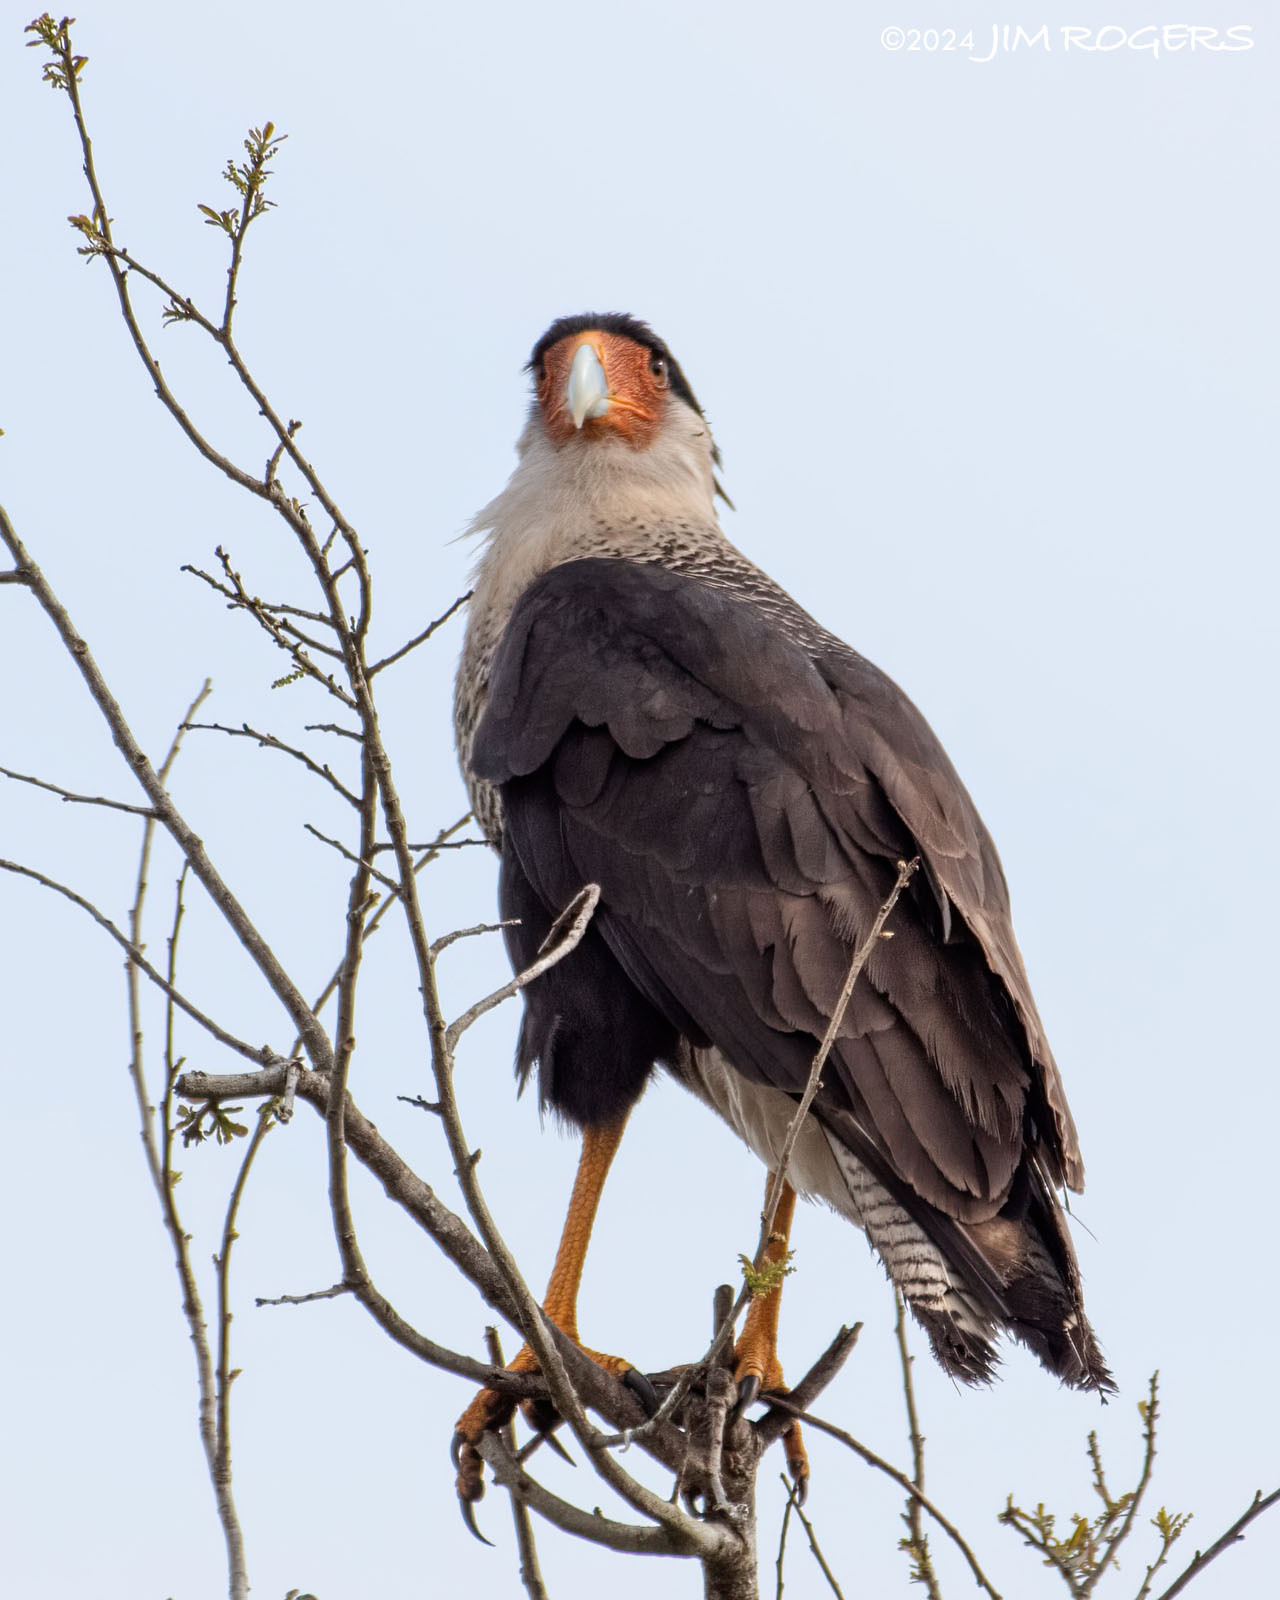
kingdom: Animalia
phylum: Chordata
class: Aves
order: Falconiformes
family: Falconidae
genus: Caracara
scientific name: Caracara plancus
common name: Southern caracara
